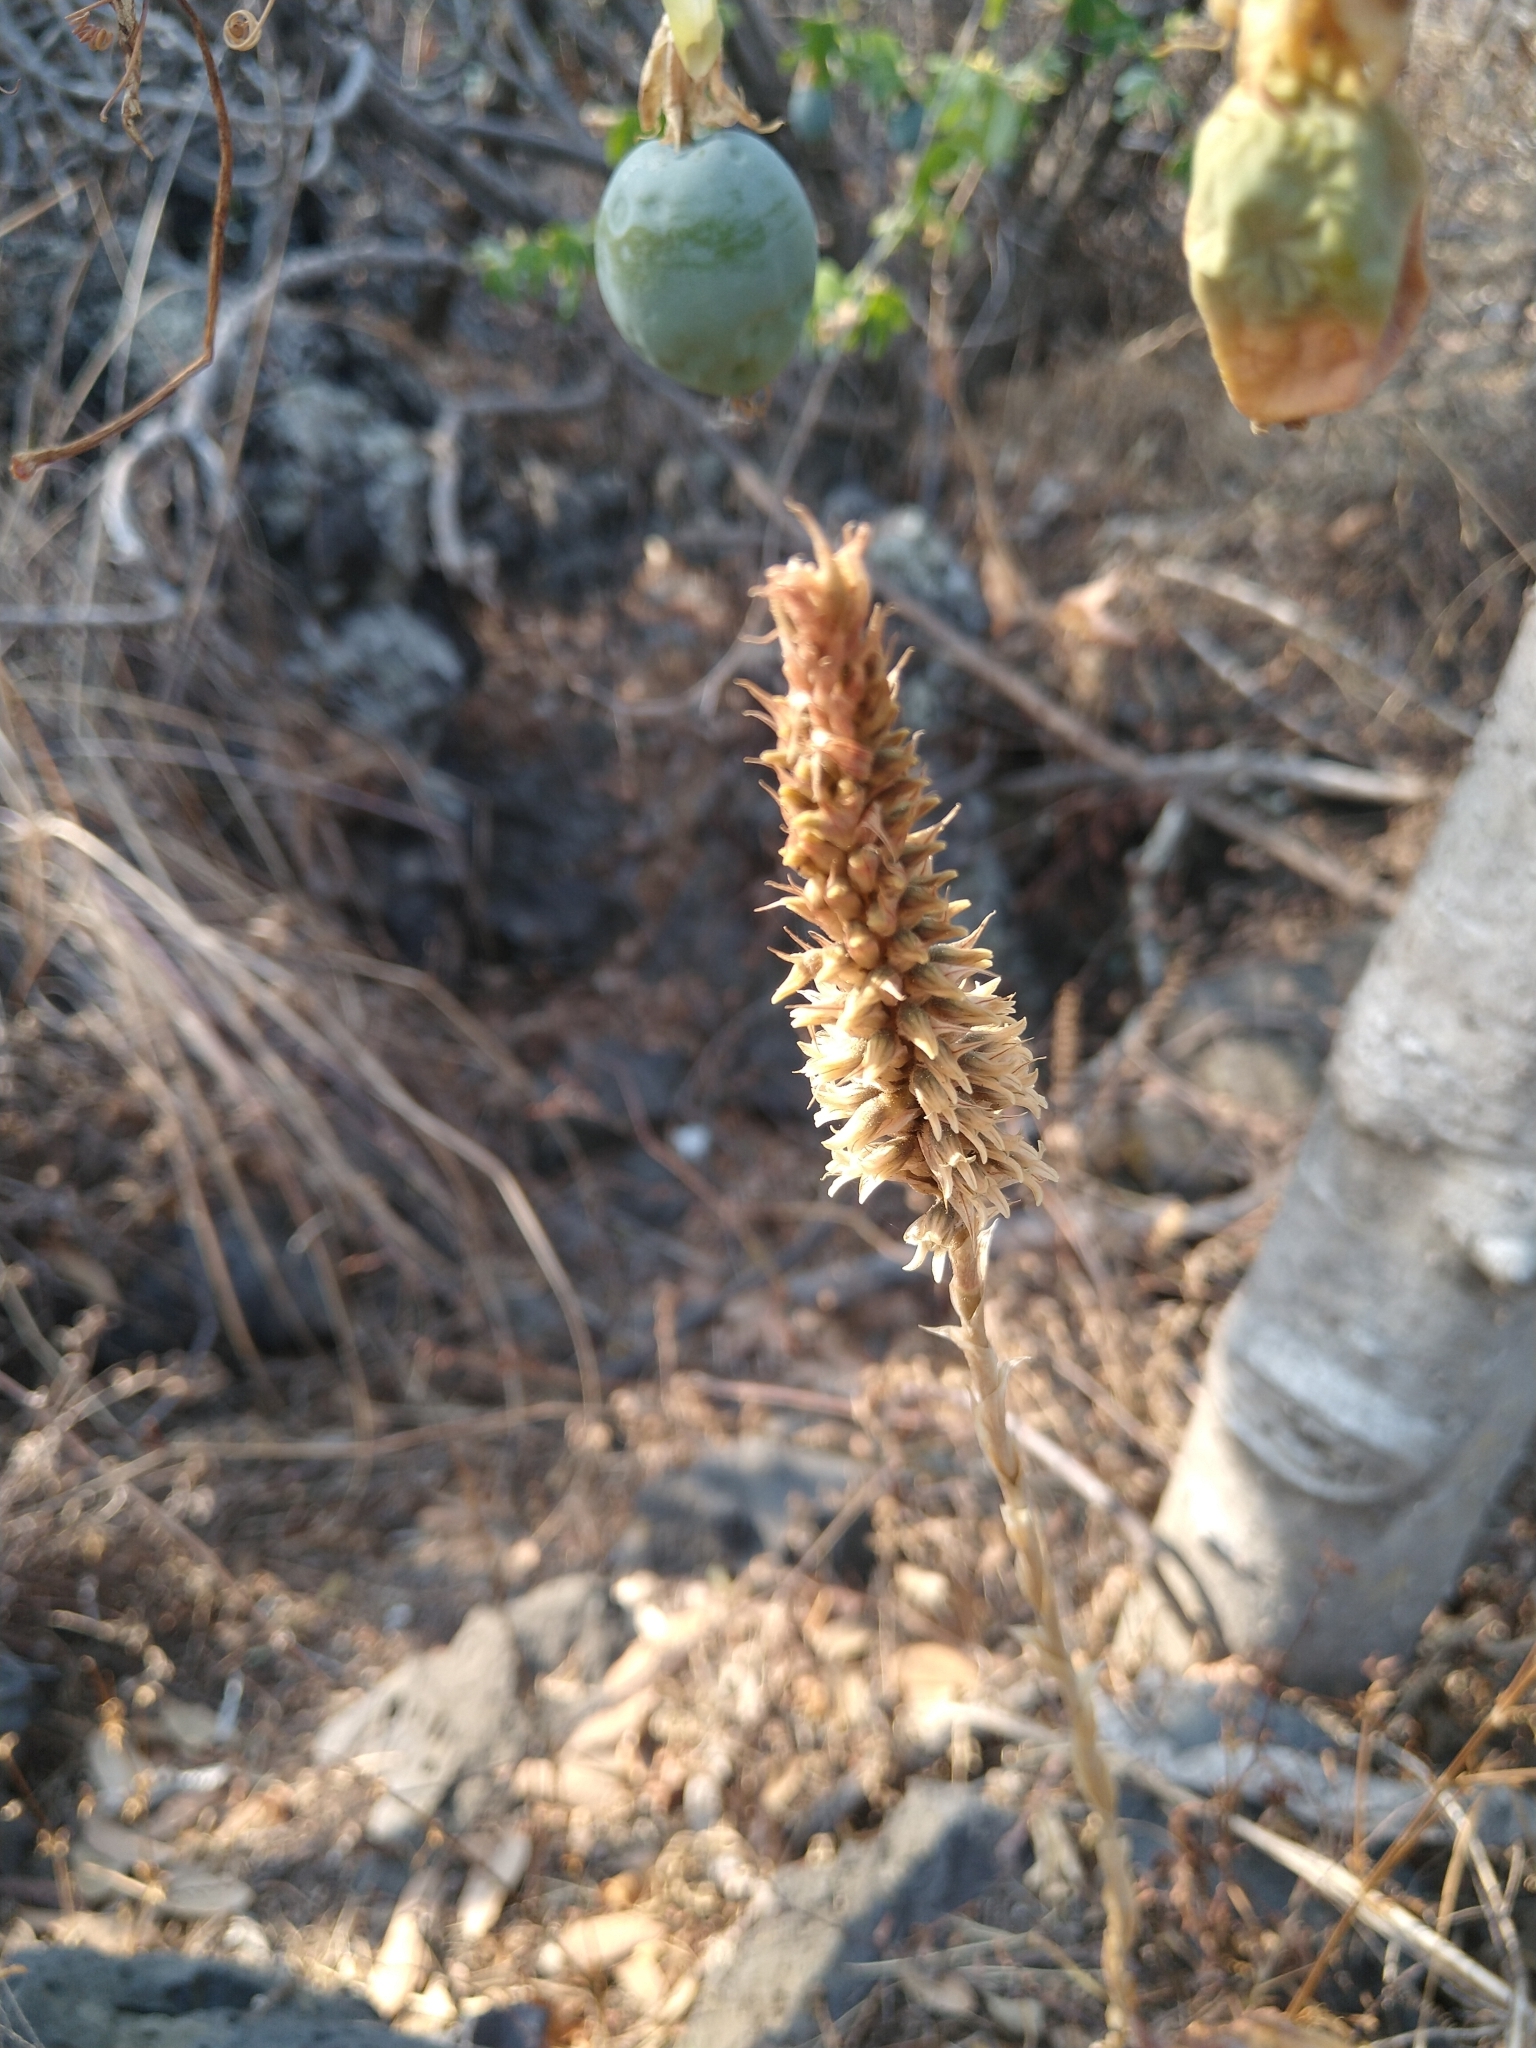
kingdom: Plantae
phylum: Tracheophyta
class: Liliopsida
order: Asparagales
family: Orchidaceae
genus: Aulosepalum
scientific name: Aulosepalum pyramidale
